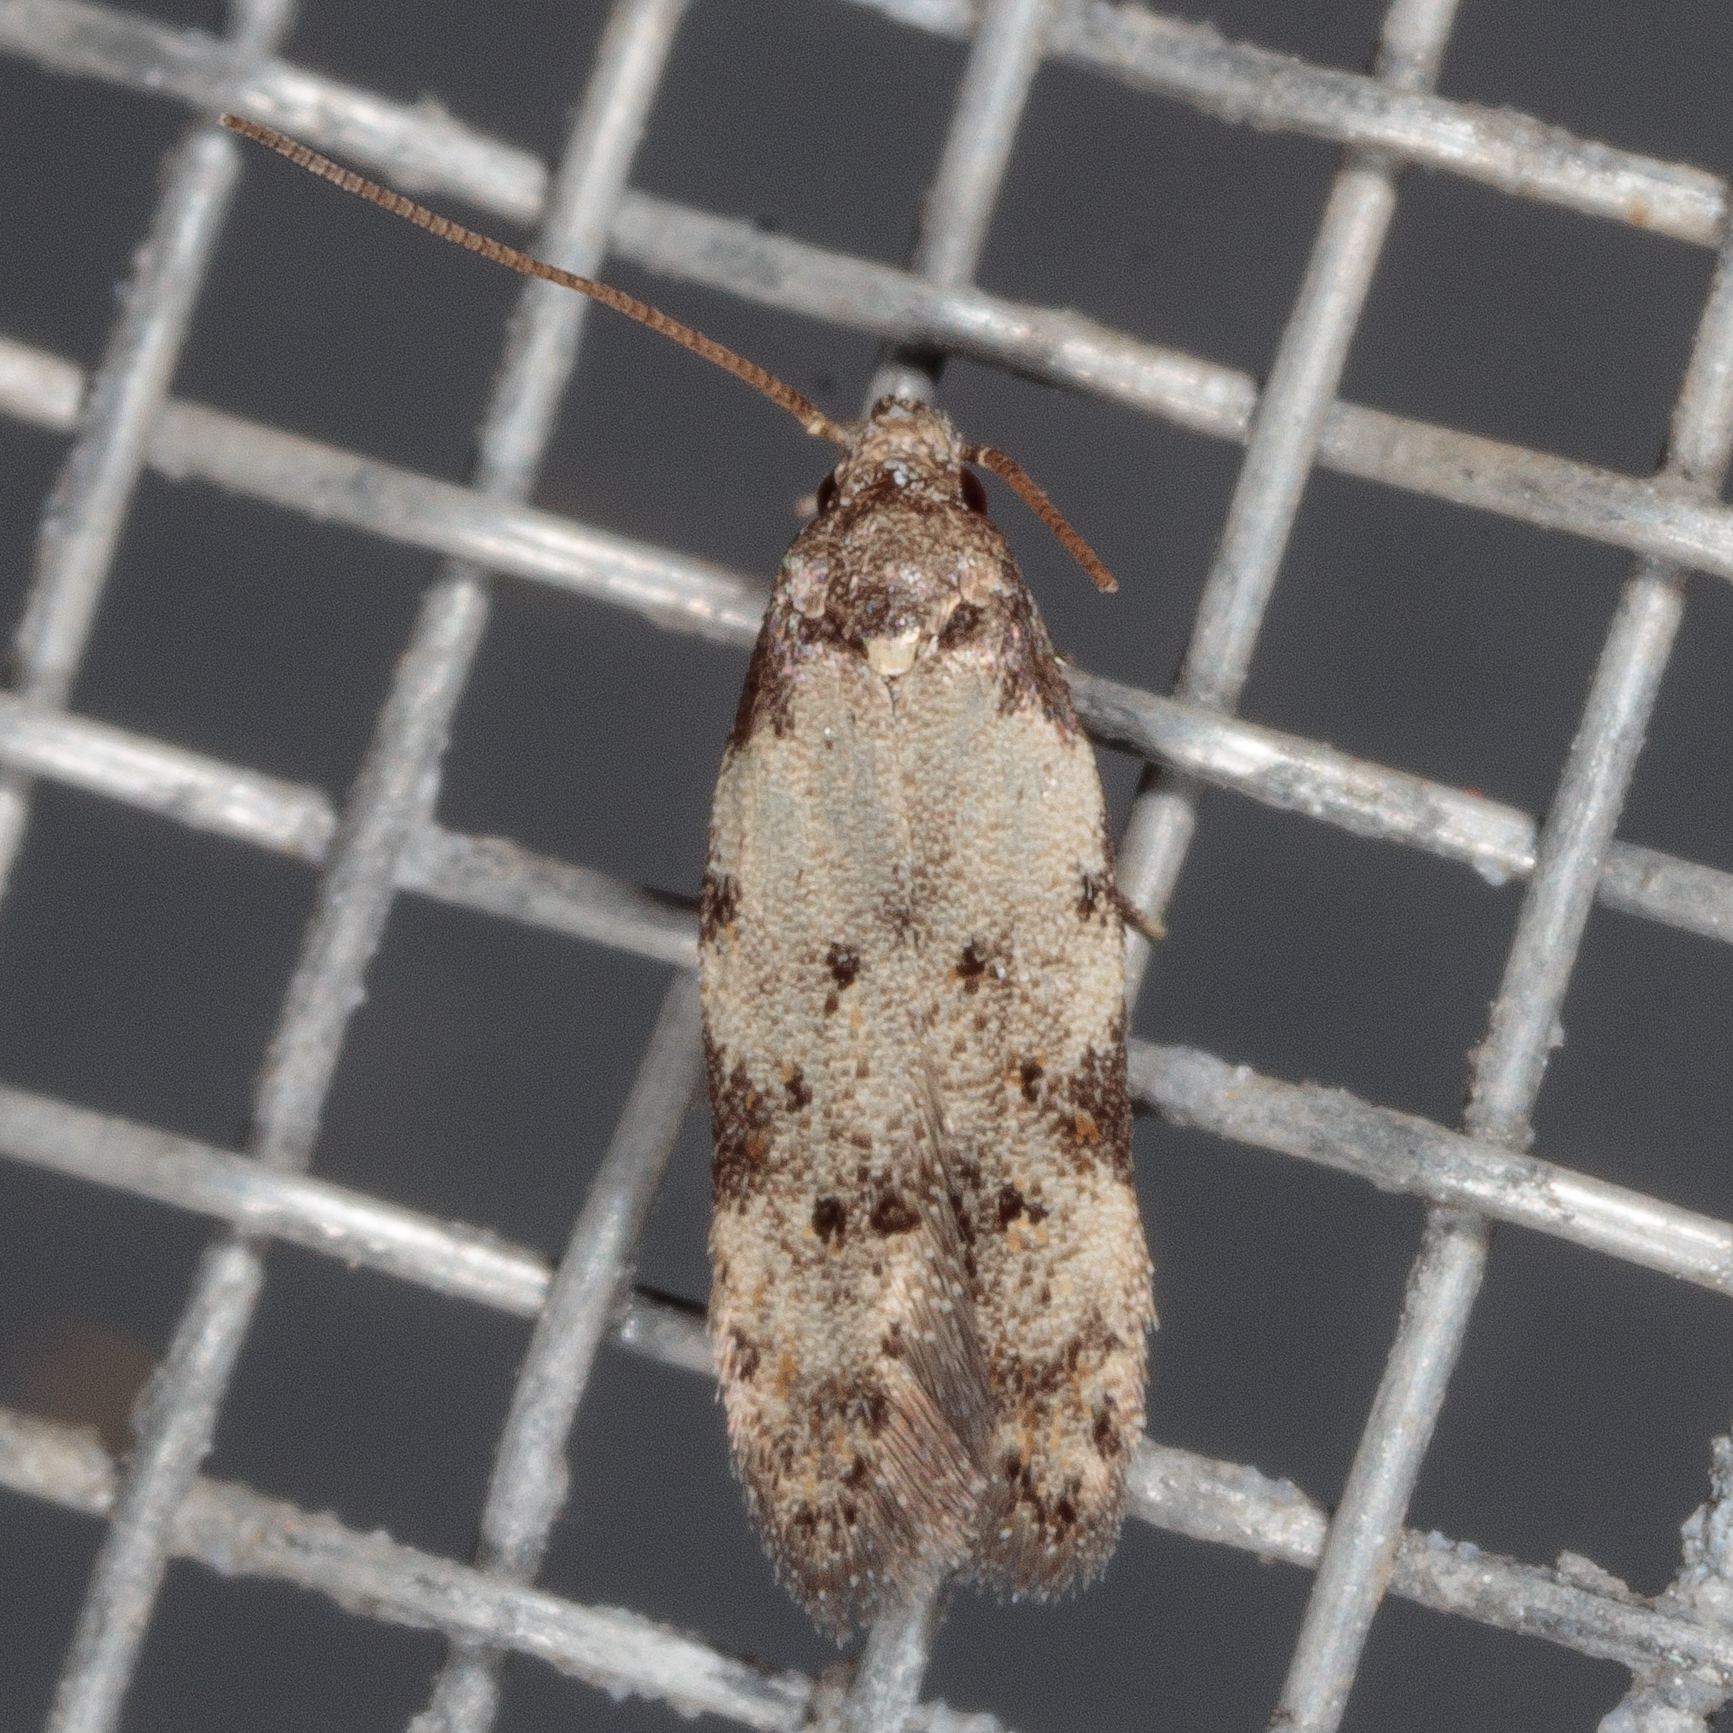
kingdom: Animalia
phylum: Arthropoda
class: Insecta
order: Lepidoptera
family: Autostichidae
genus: Taygete
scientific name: Taygete attributella
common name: Triangle-marked twirler moth
